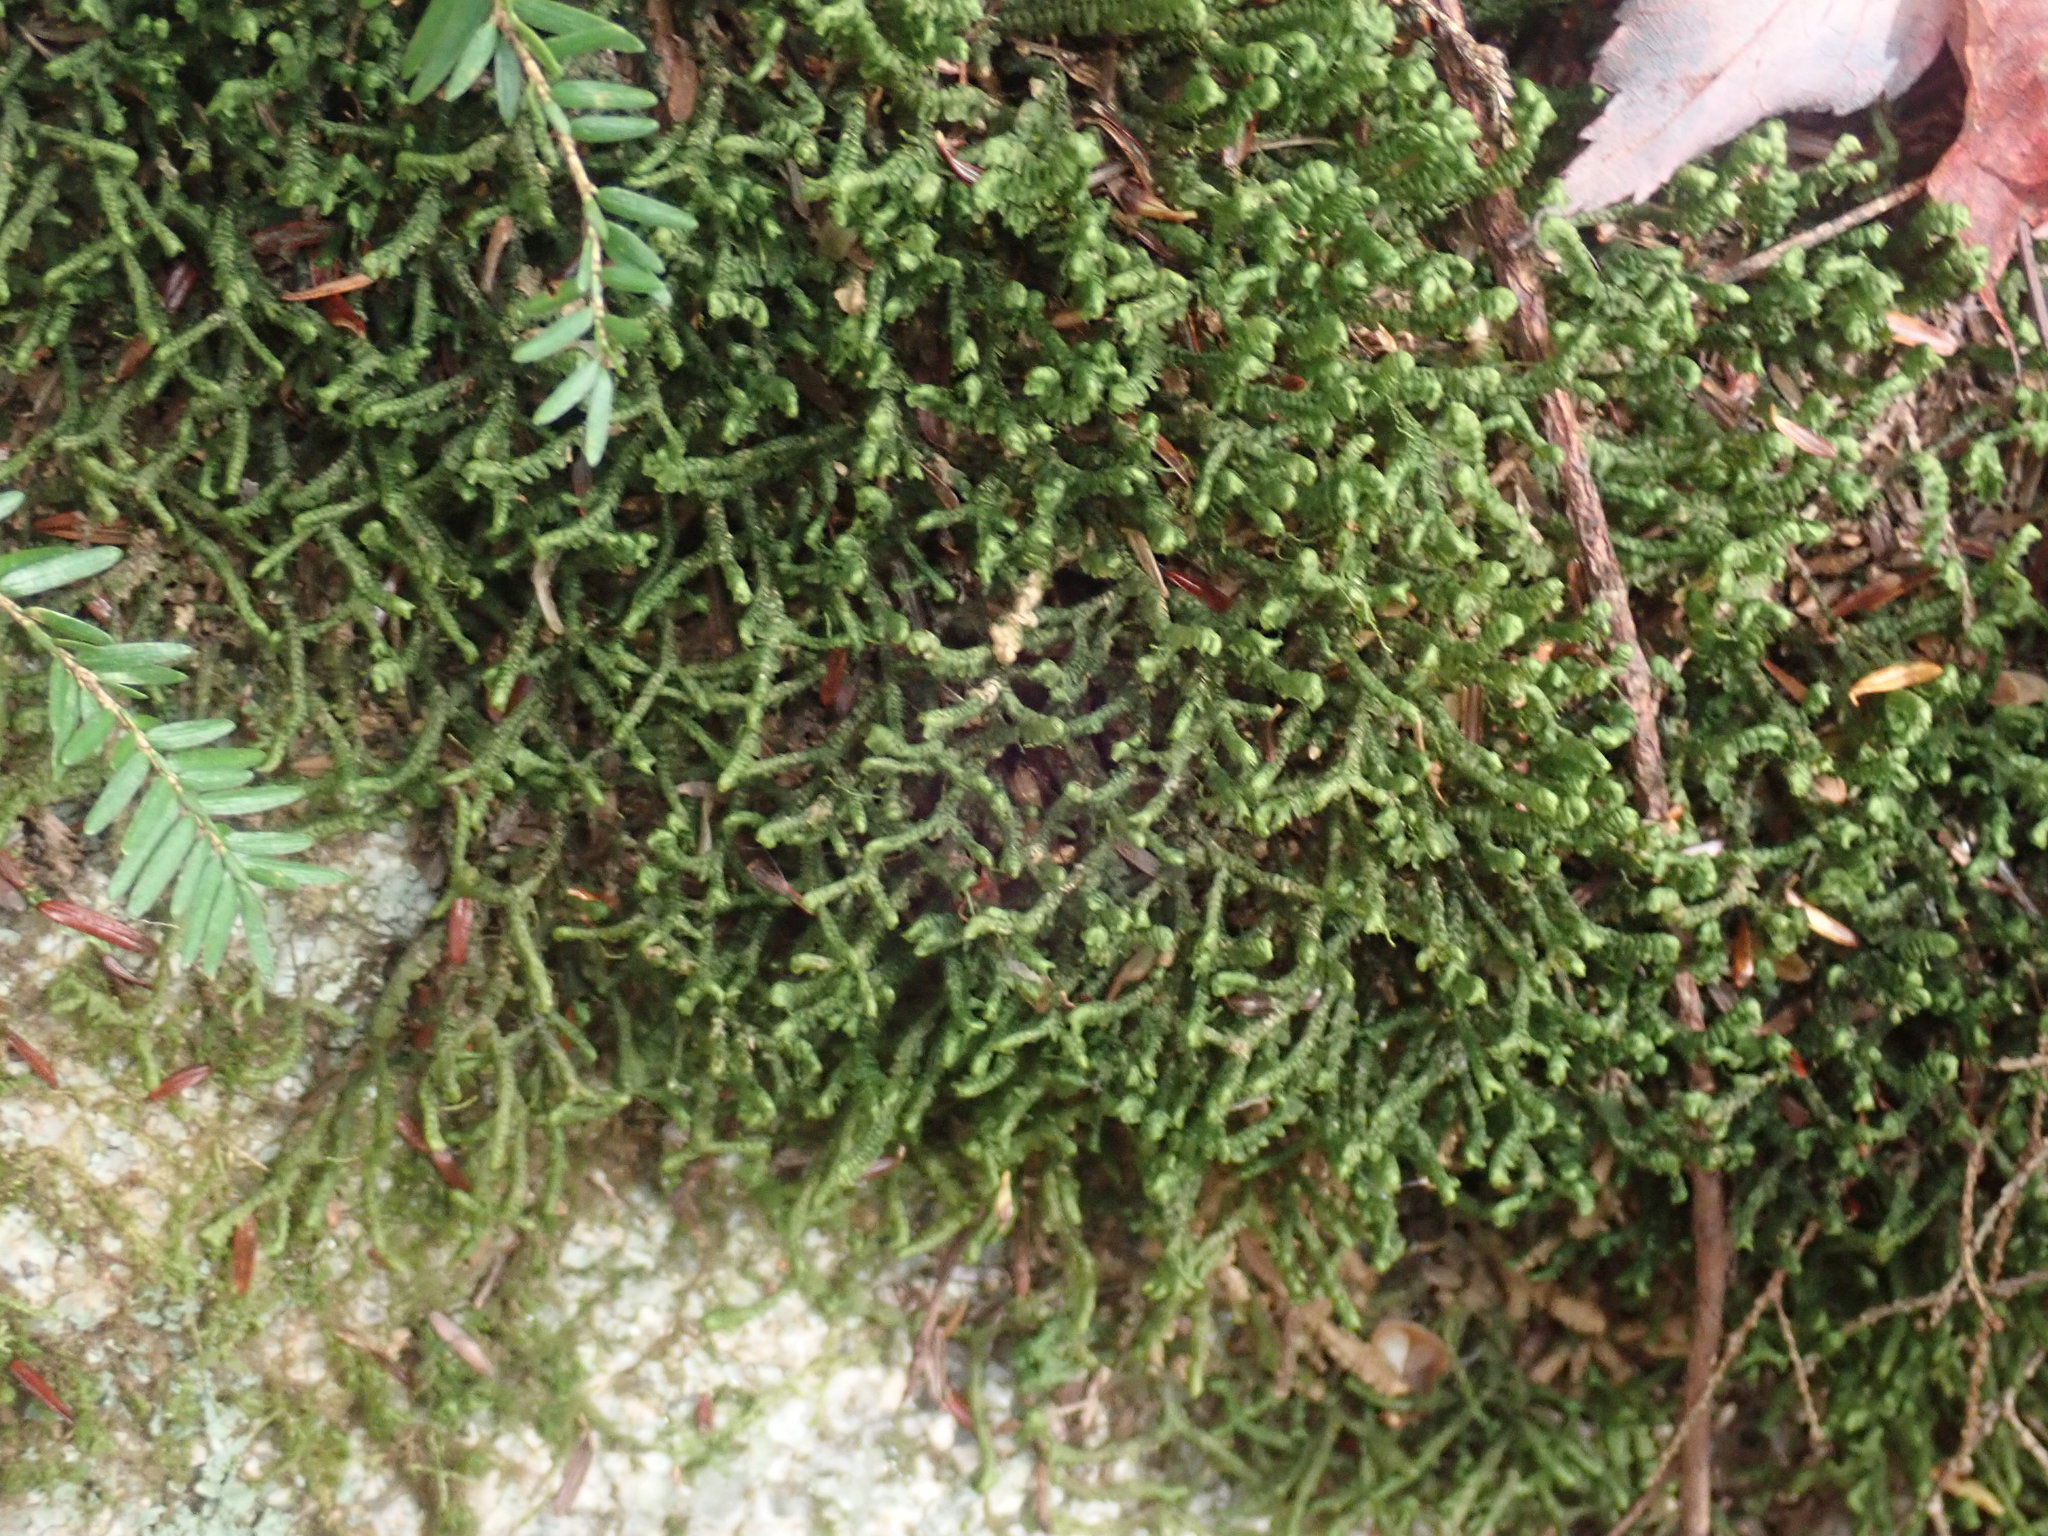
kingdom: Plantae
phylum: Marchantiophyta
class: Jungermanniopsida
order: Jungermanniales
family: Lepidoziaceae
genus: Bazzania
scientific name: Bazzania trilobata
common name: Three-lobed whipwort
